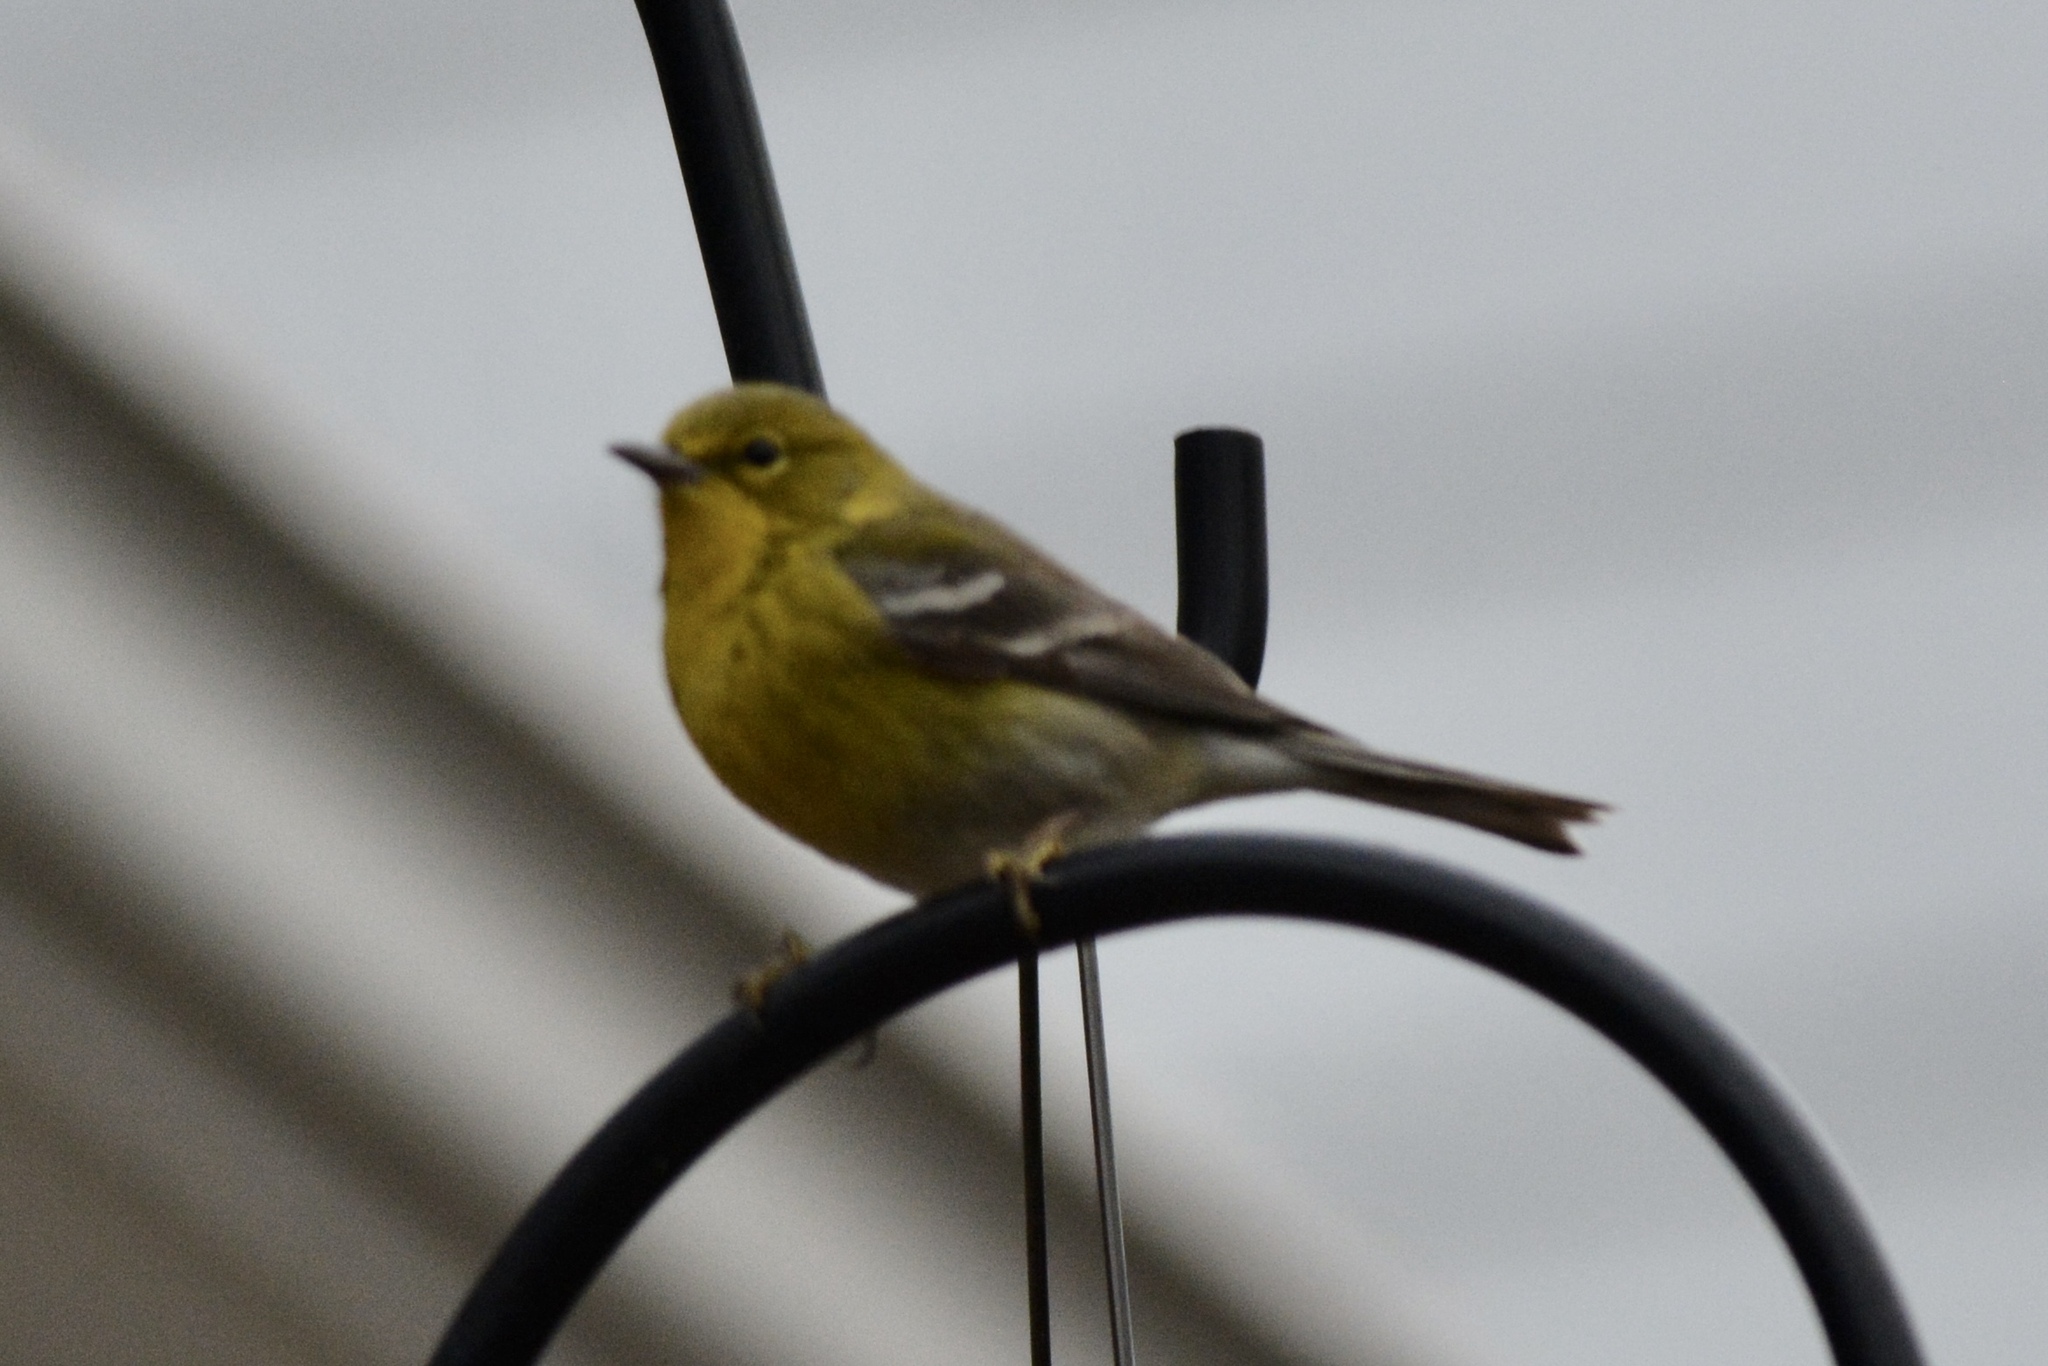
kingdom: Animalia
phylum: Chordata
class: Aves
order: Passeriformes
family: Parulidae
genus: Setophaga
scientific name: Setophaga pinus
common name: Pine warbler
